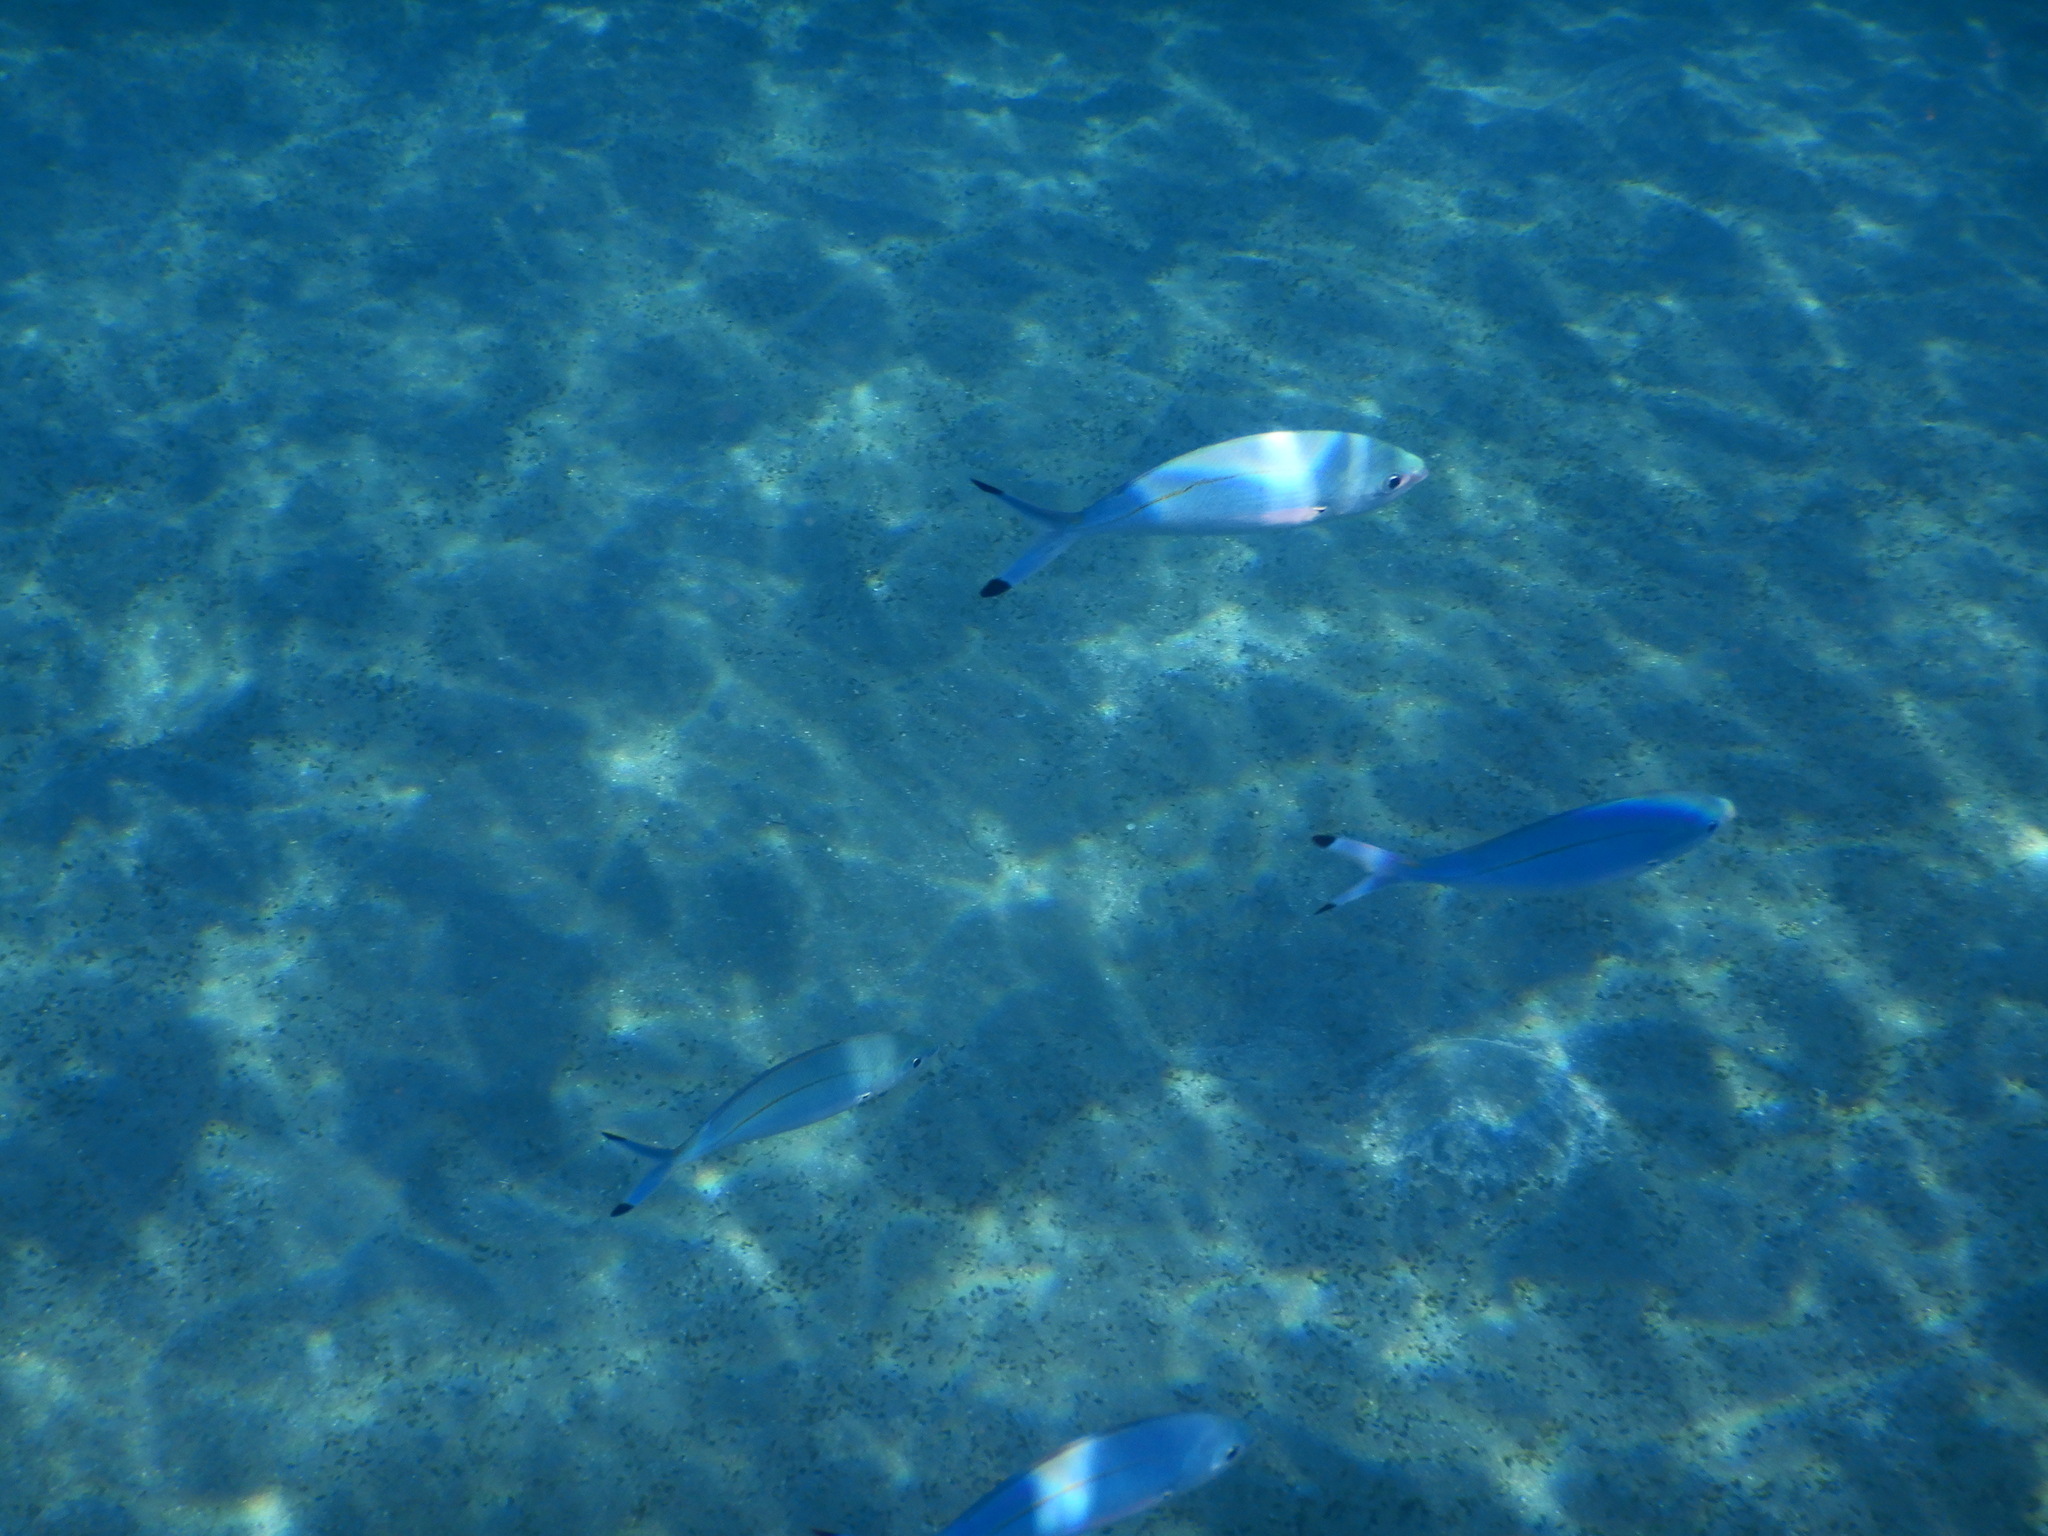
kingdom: Animalia
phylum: Chordata
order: Perciformes
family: Caesionidae
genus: Caesio
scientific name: Caesio lunaris
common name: Blue fusilier
